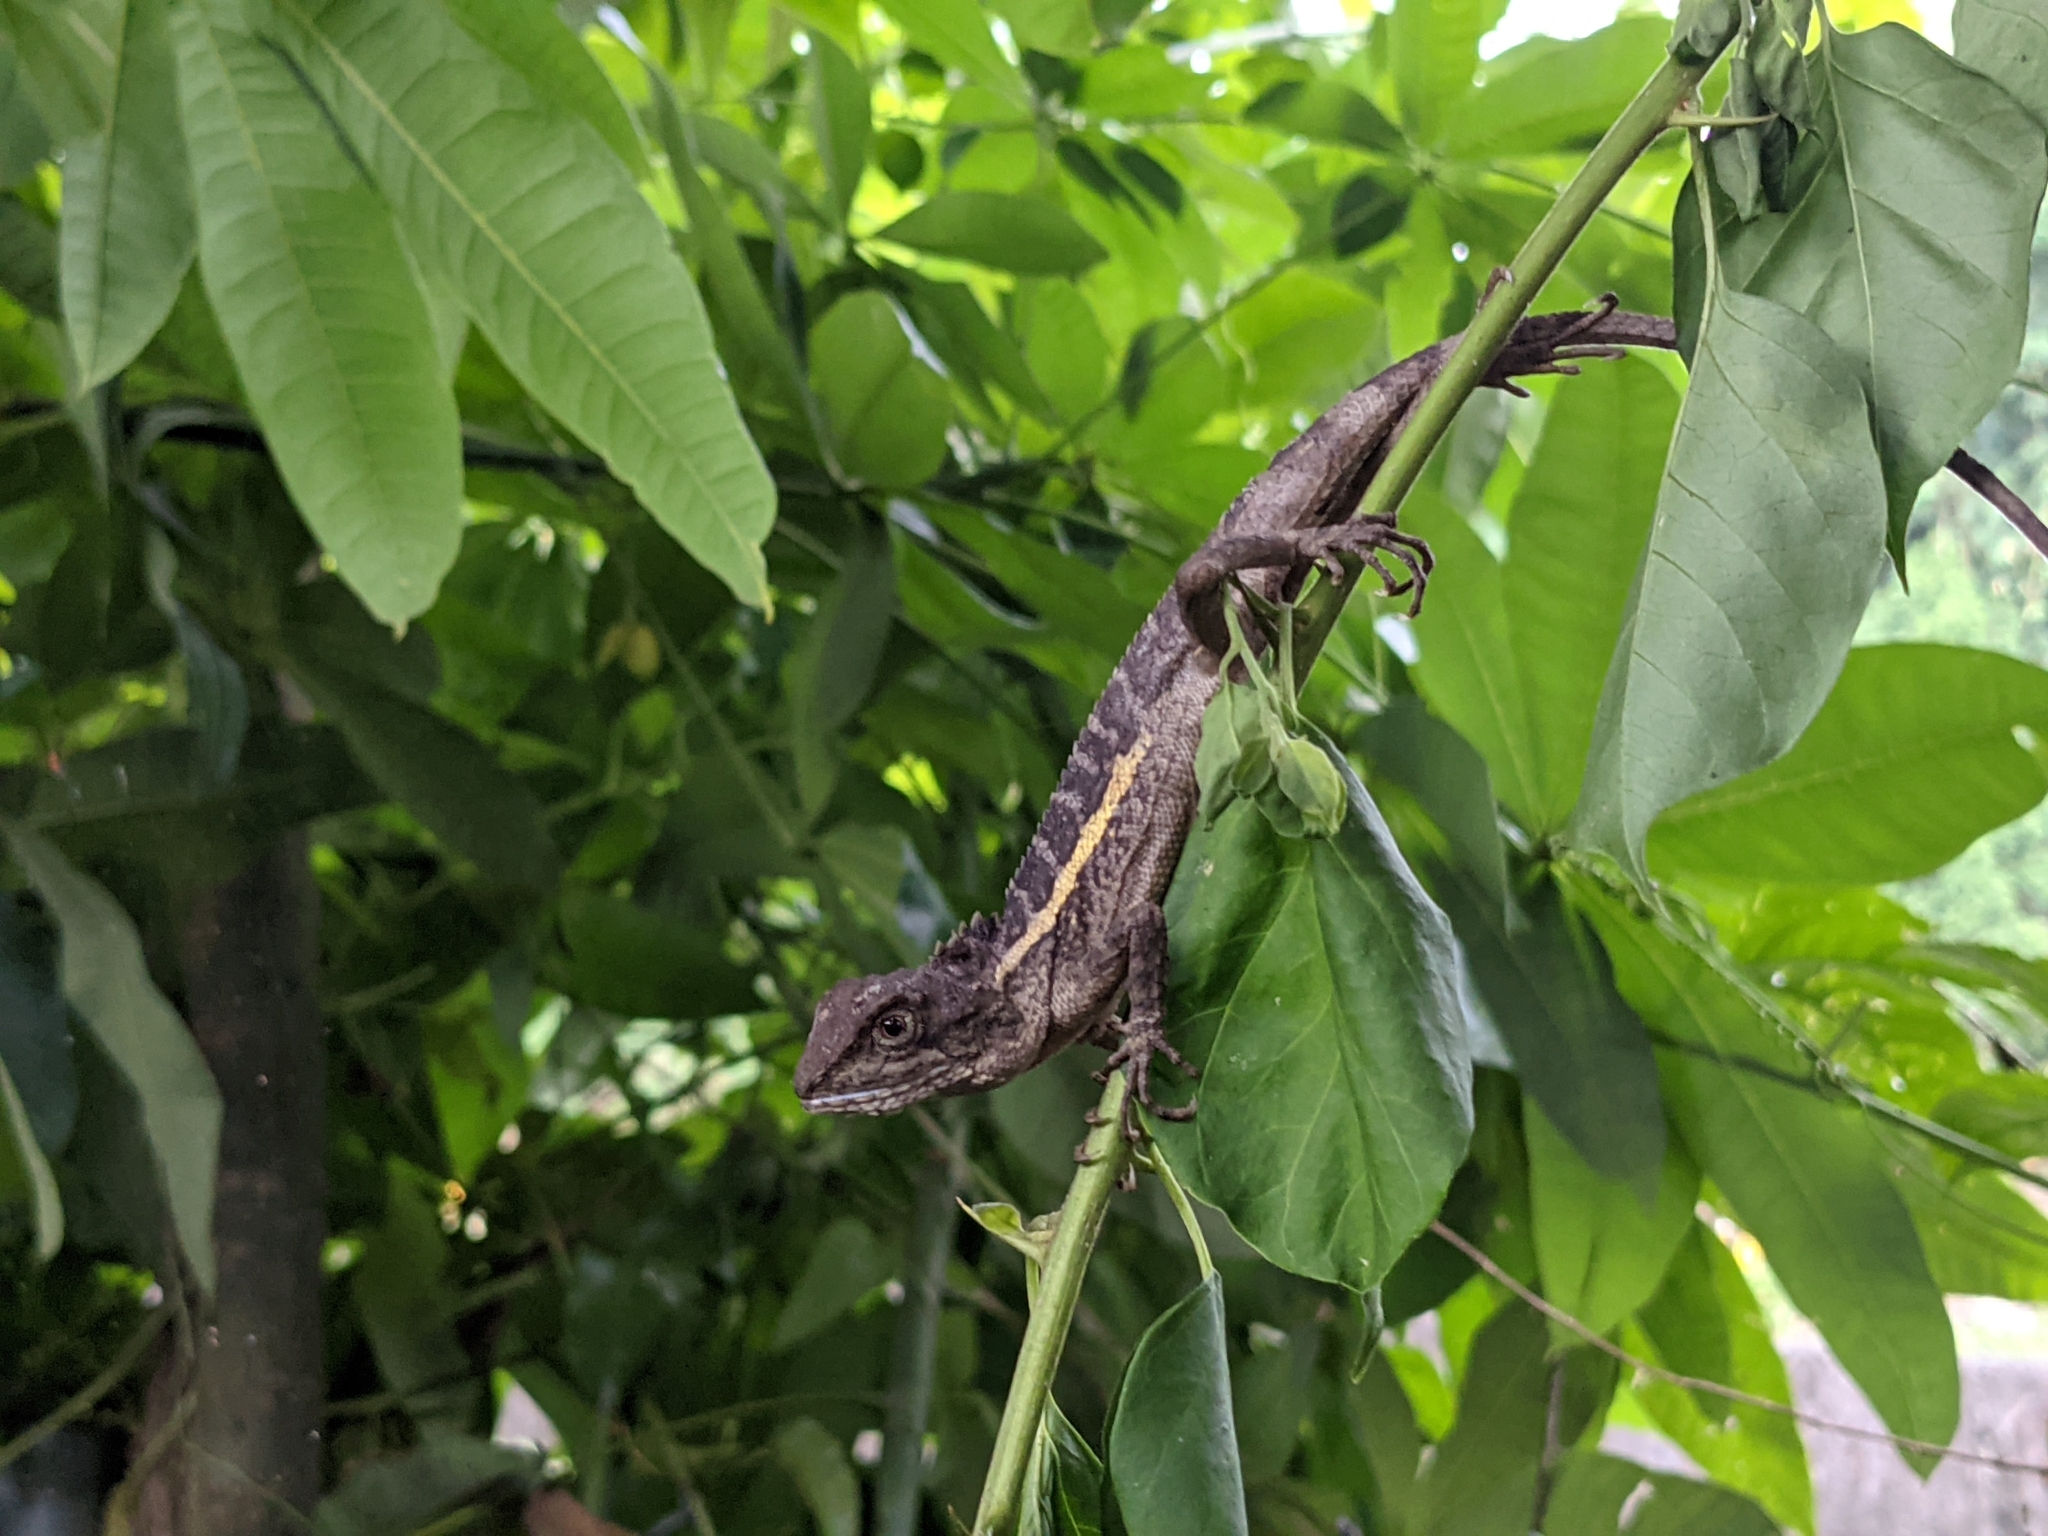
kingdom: Animalia
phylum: Chordata
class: Squamata
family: Agamidae
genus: Diploderma
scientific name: Diploderma swinhonis
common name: Taiwan japalure
